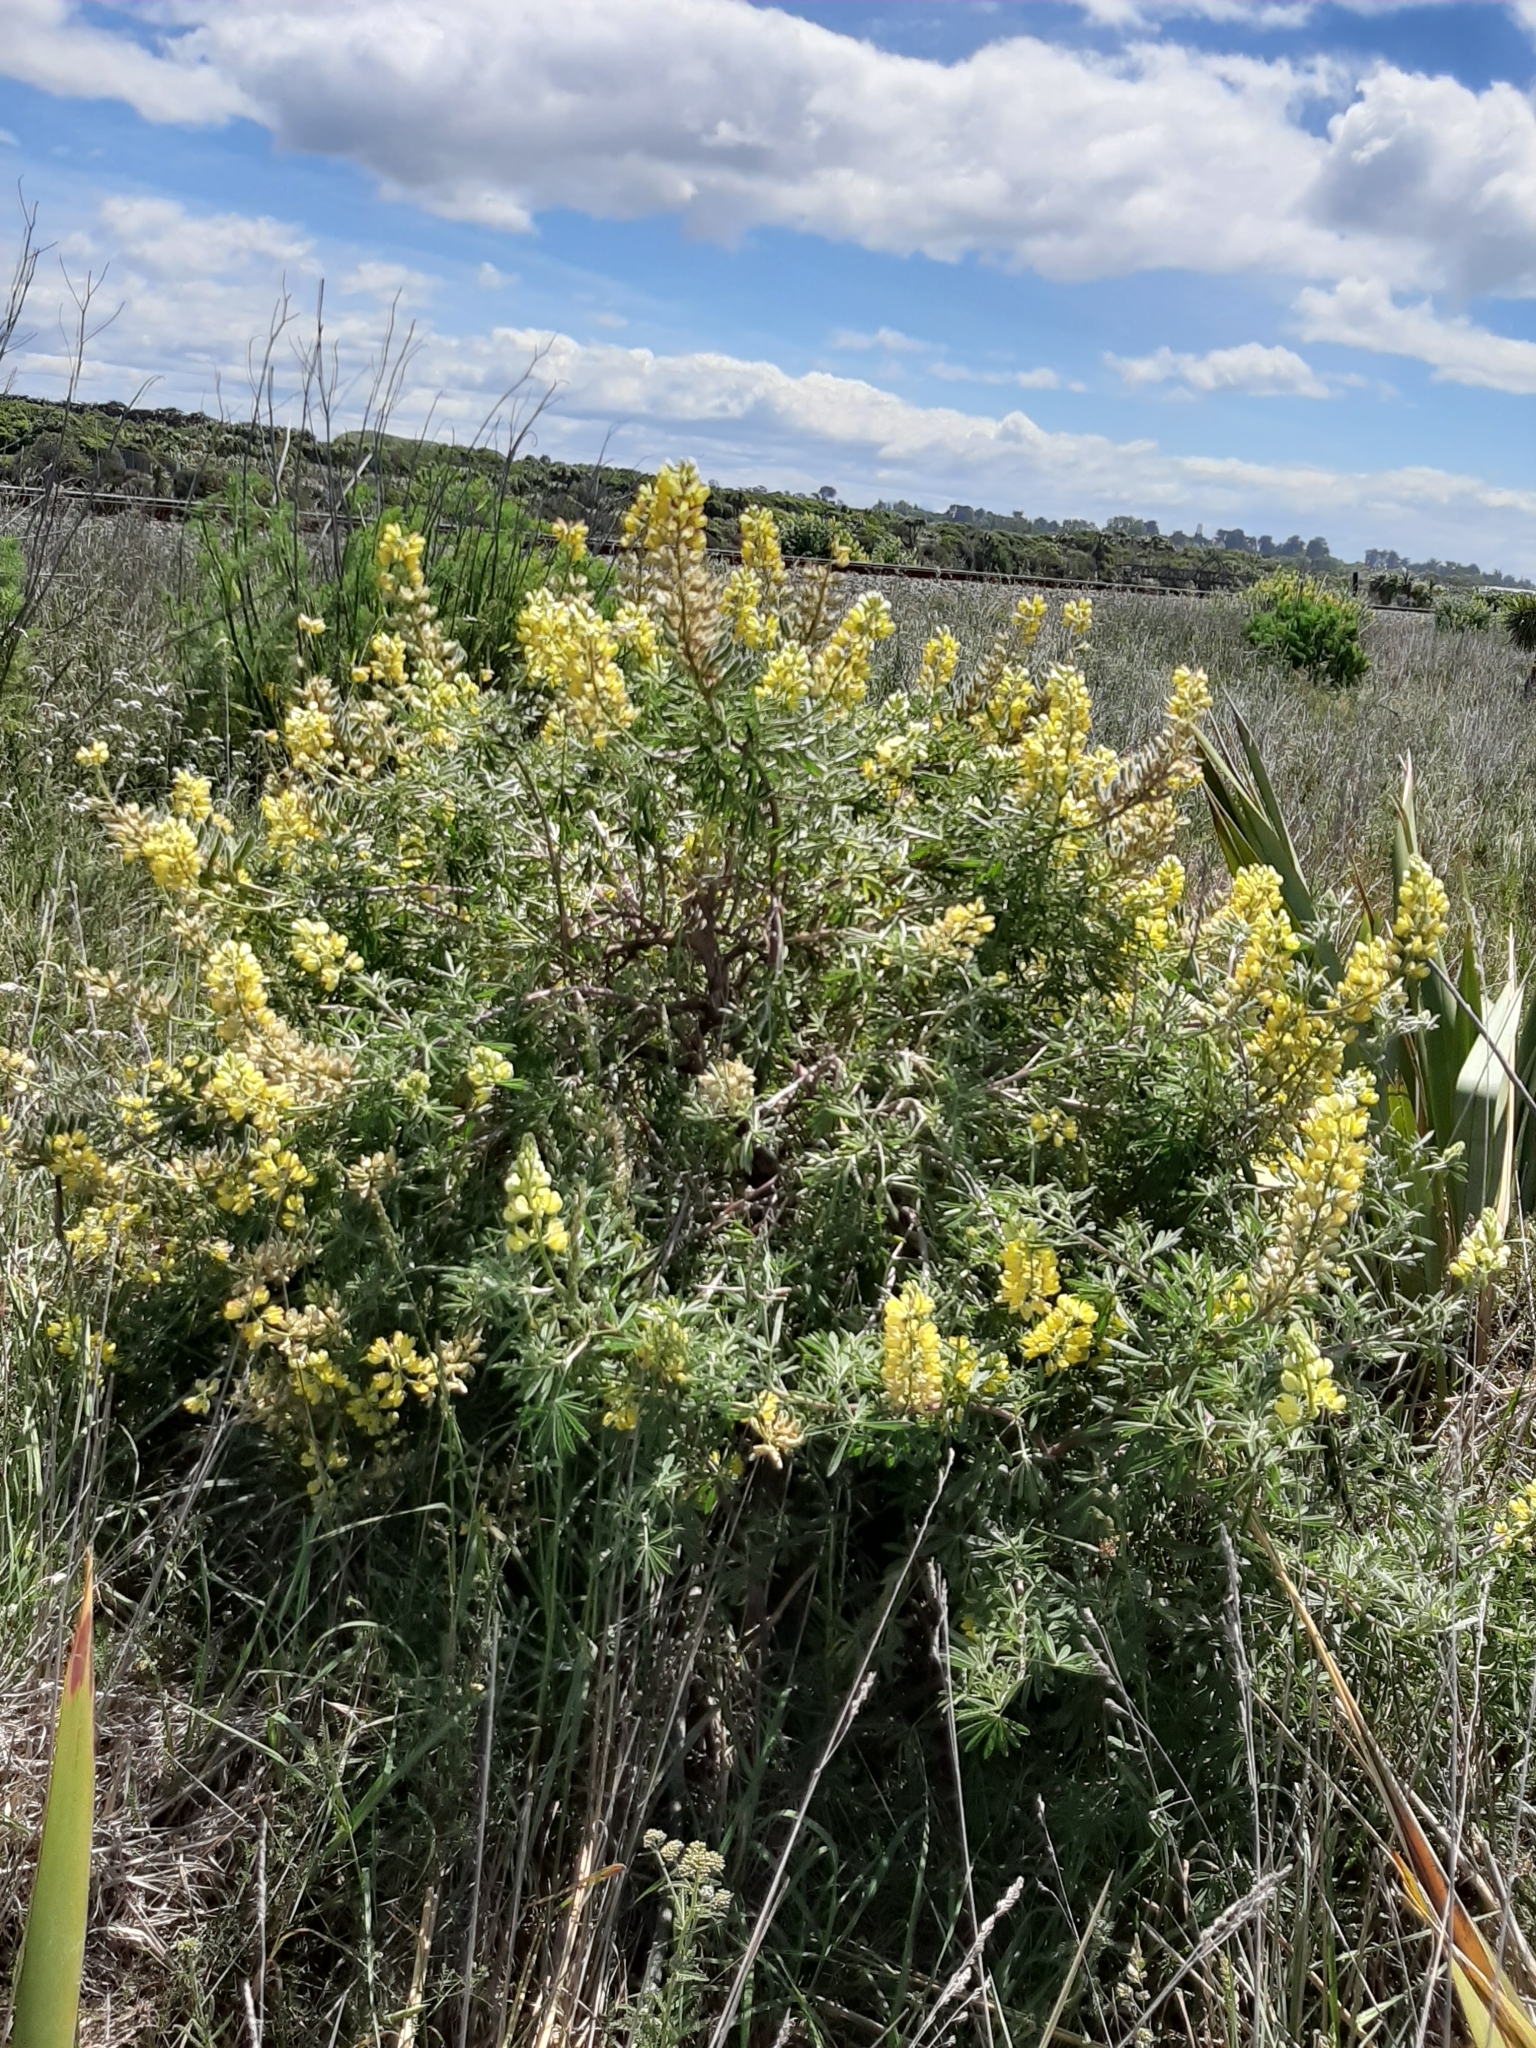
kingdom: Plantae
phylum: Tracheophyta
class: Magnoliopsida
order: Fabales
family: Fabaceae
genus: Lupinus
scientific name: Lupinus arboreus
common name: Yellow bush lupine
